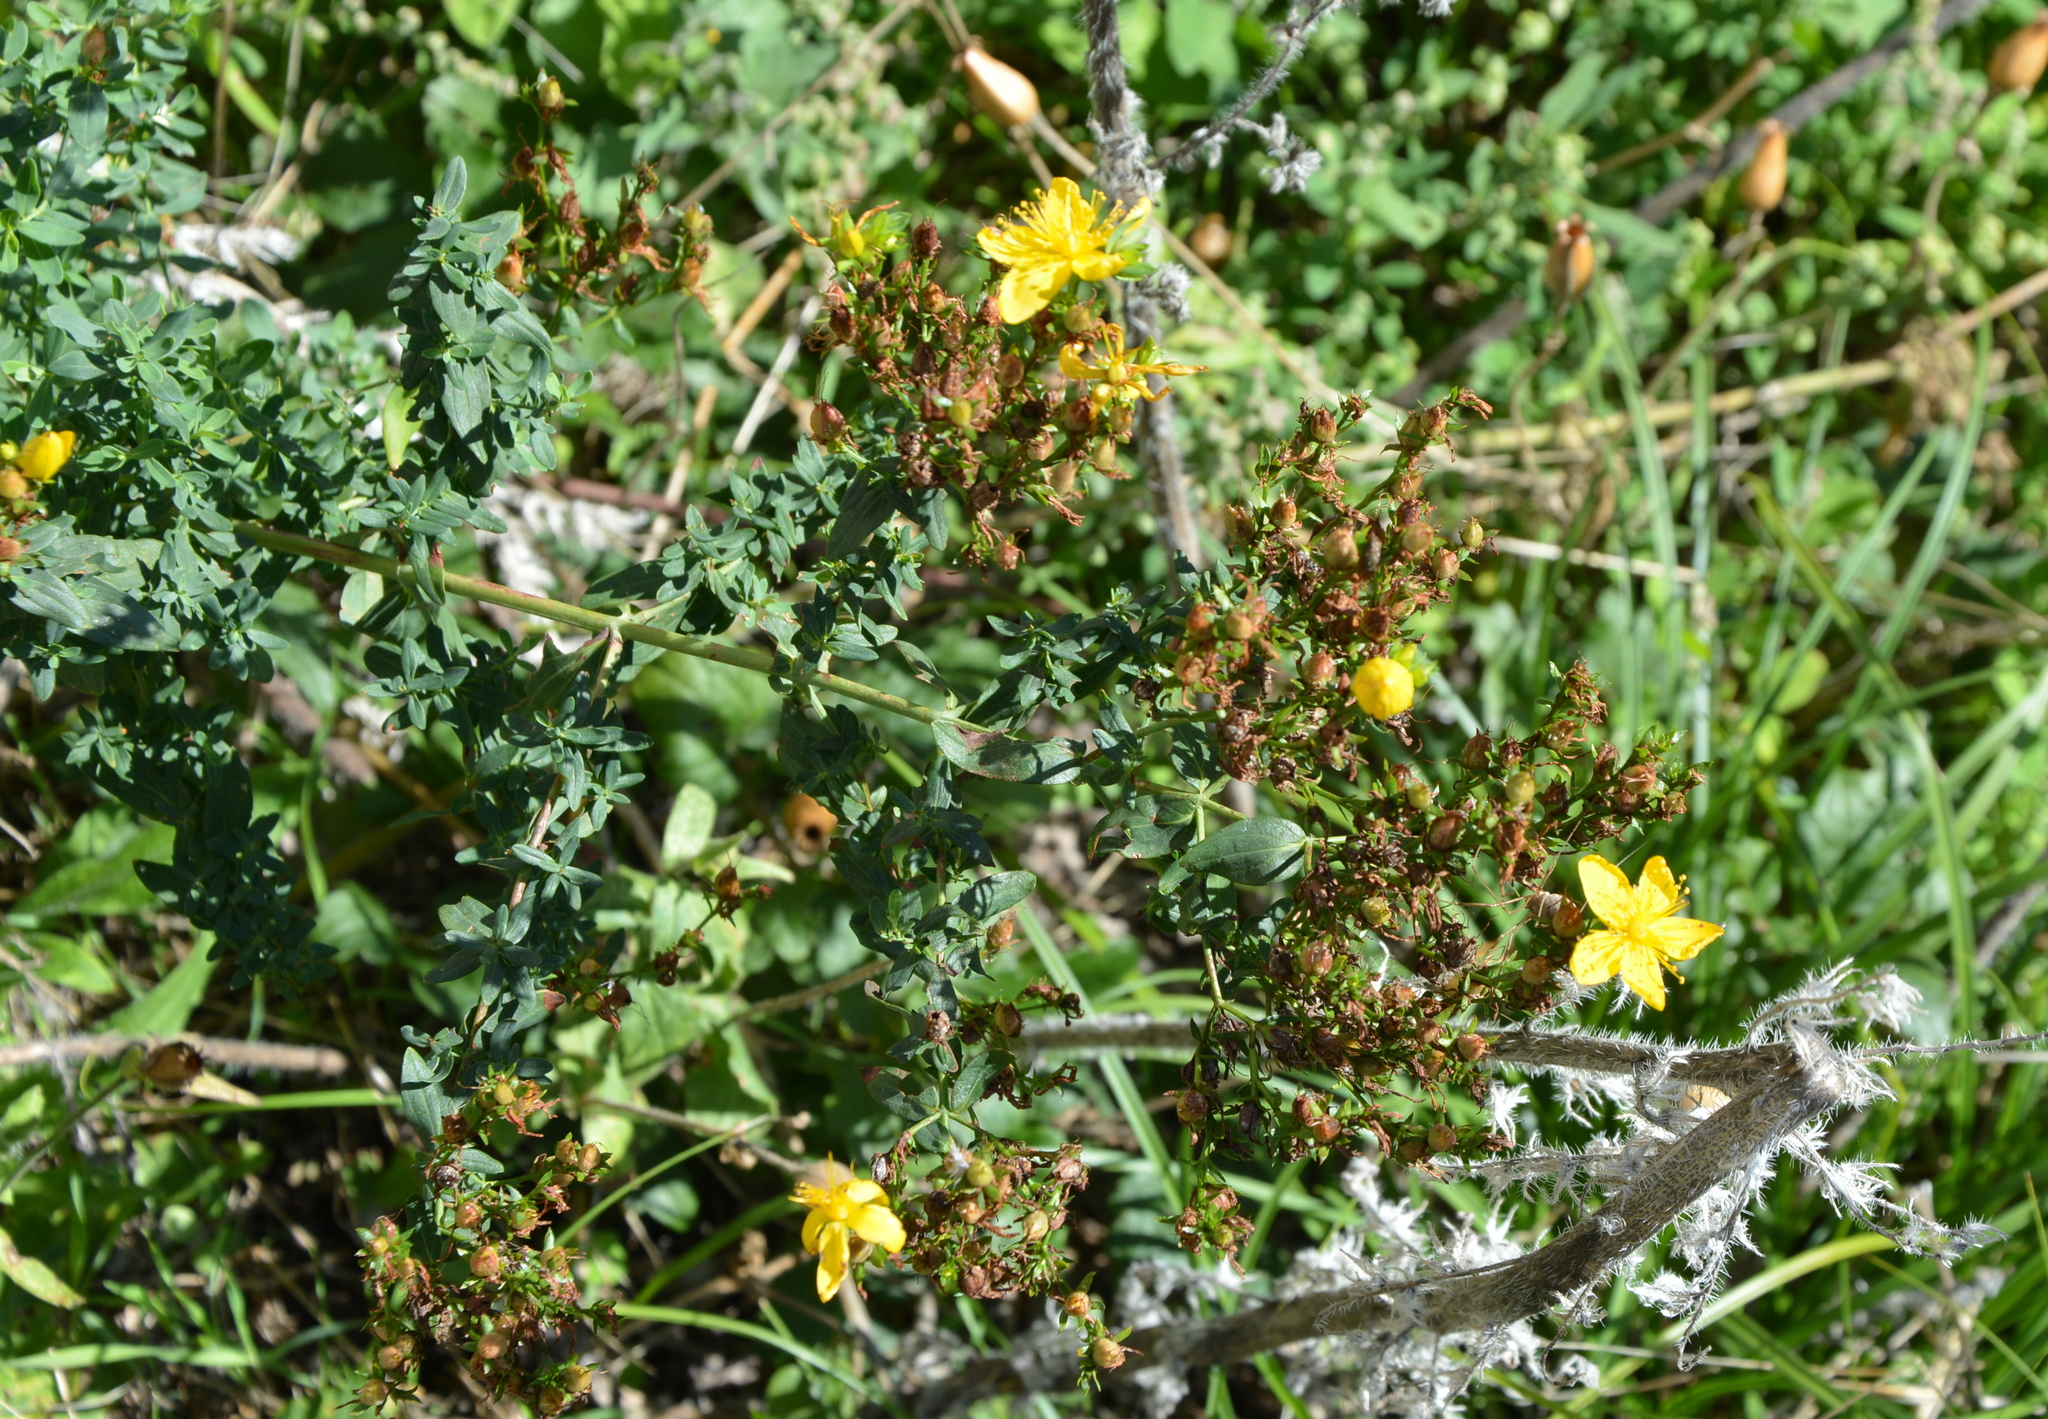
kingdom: Plantae
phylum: Tracheophyta
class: Magnoliopsida
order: Malpighiales
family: Hypericaceae
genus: Hypericum
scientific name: Hypericum perforatum
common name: Common st. johnswort
